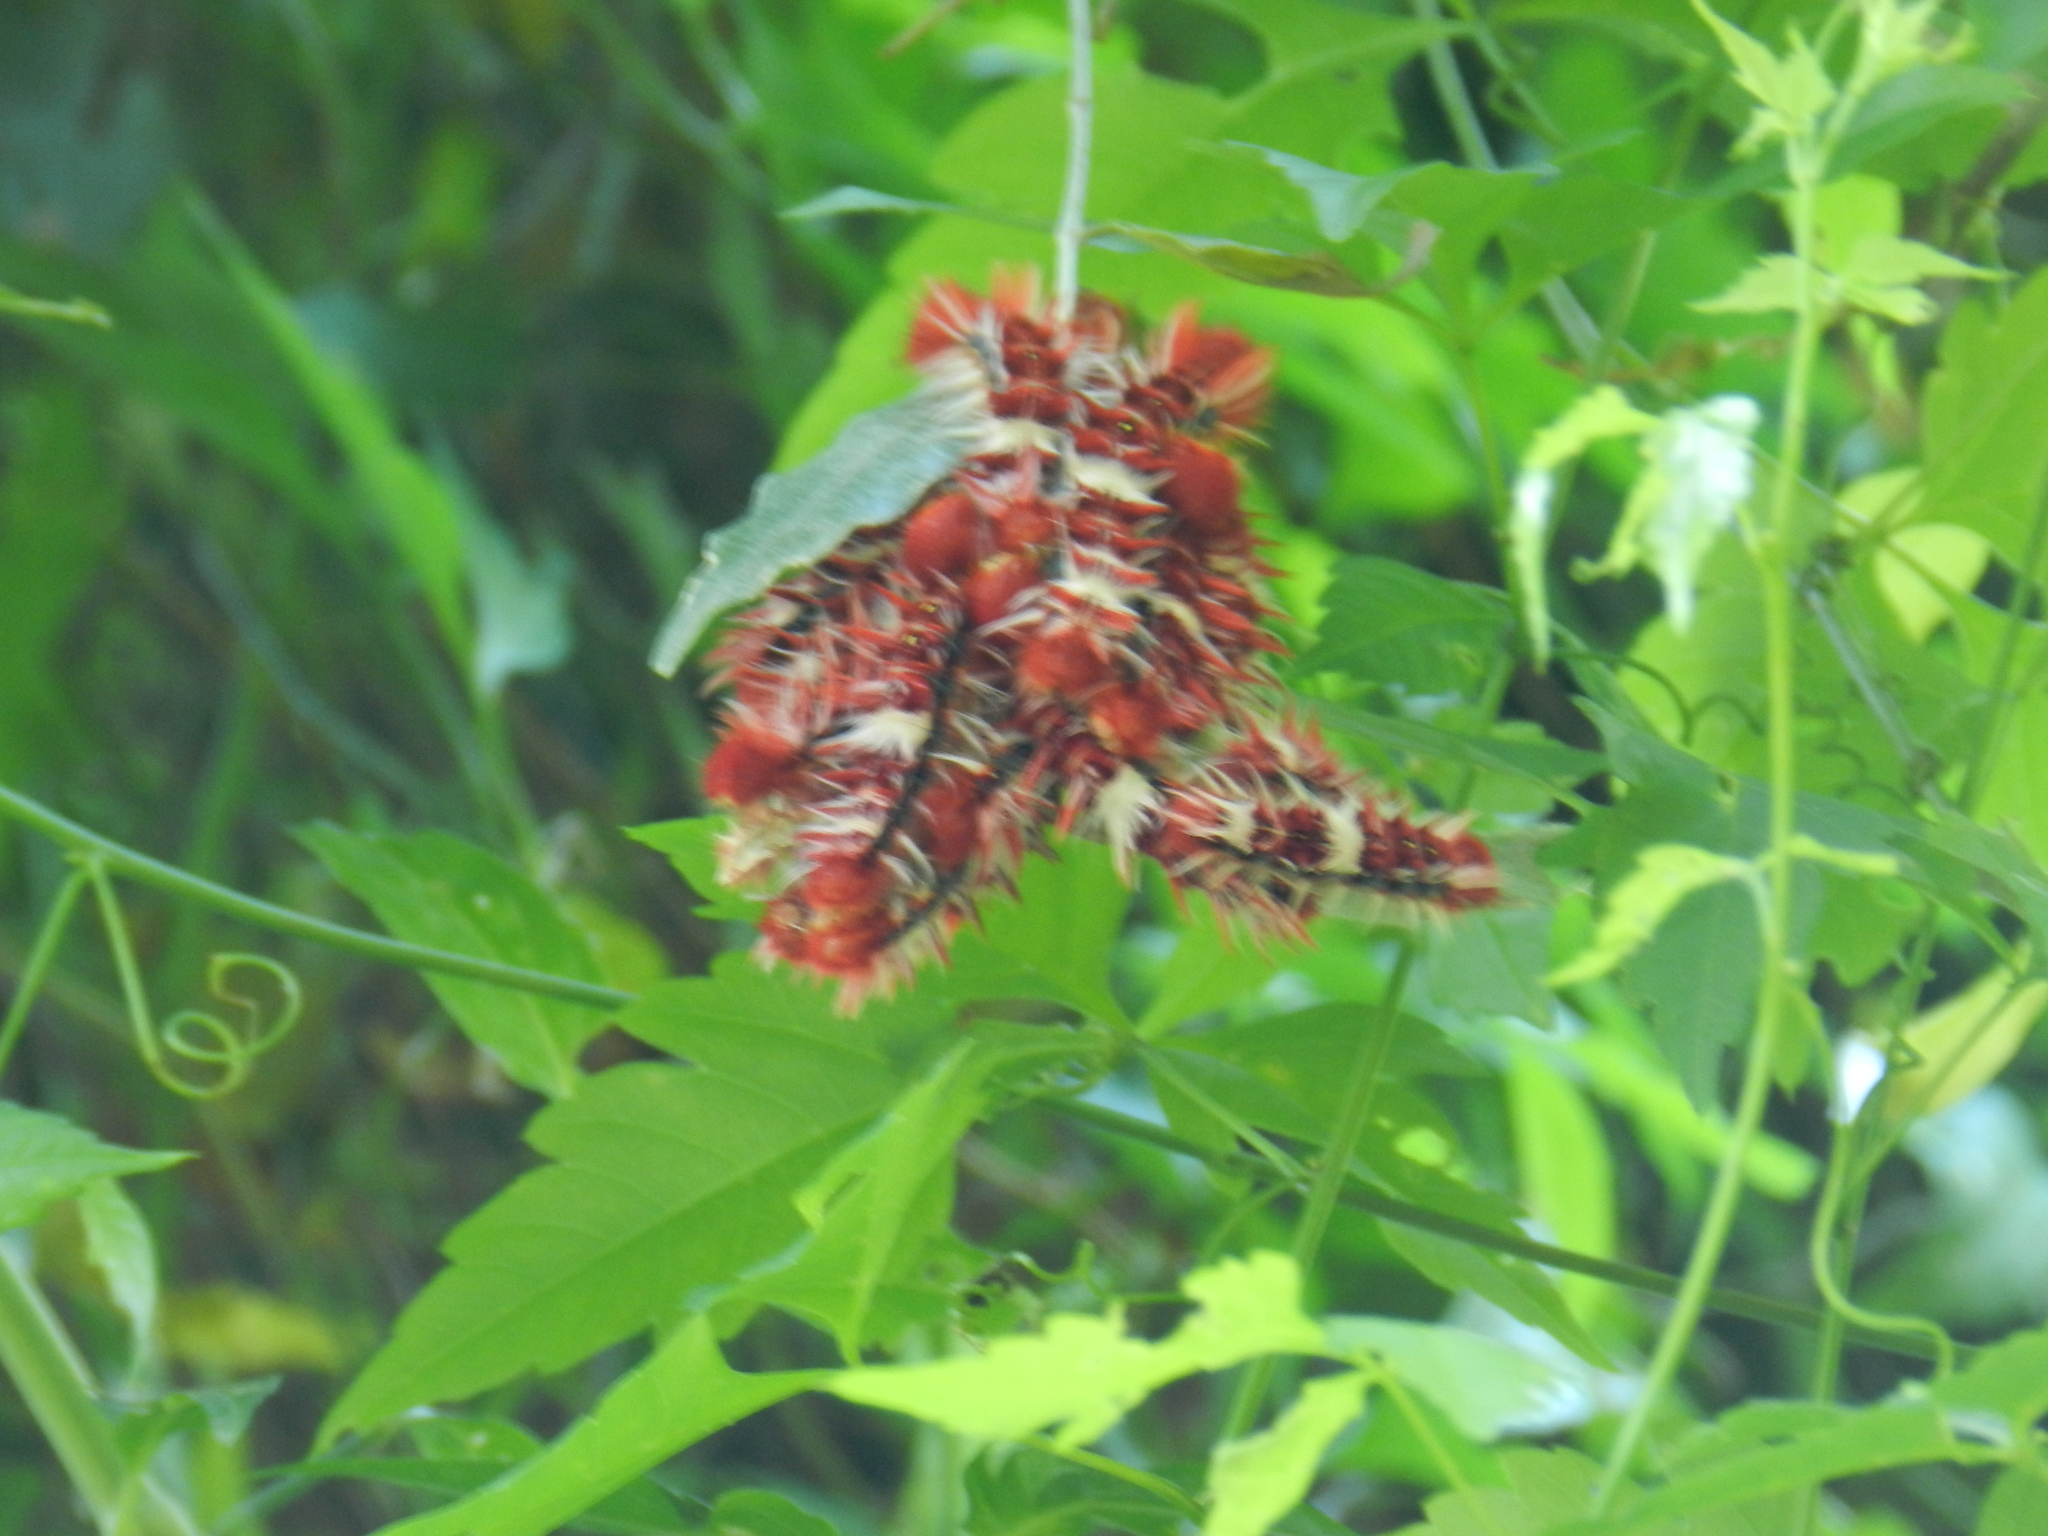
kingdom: Animalia
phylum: Arthropoda
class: Insecta
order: Lepidoptera
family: Nymphalidae
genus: Morpho
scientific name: Morpho epistrophus
